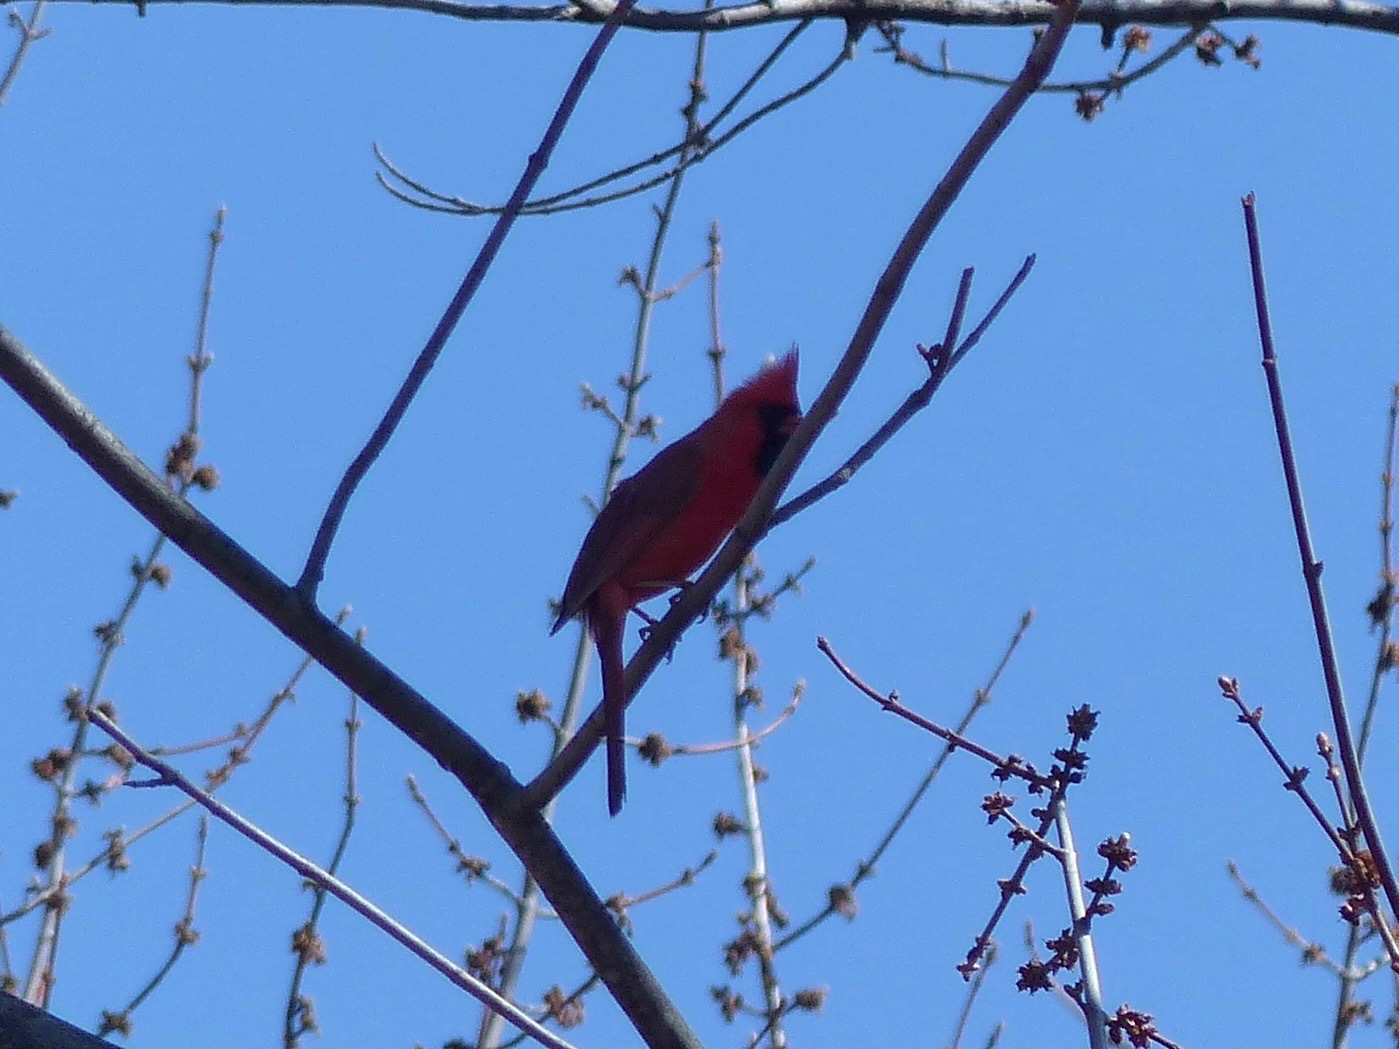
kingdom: Animalia
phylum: Chordata
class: Aves
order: Passeriformes
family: Cardinalidae
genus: Cardinalis
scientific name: Cardinalis cardinalis
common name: Northern cardinal
